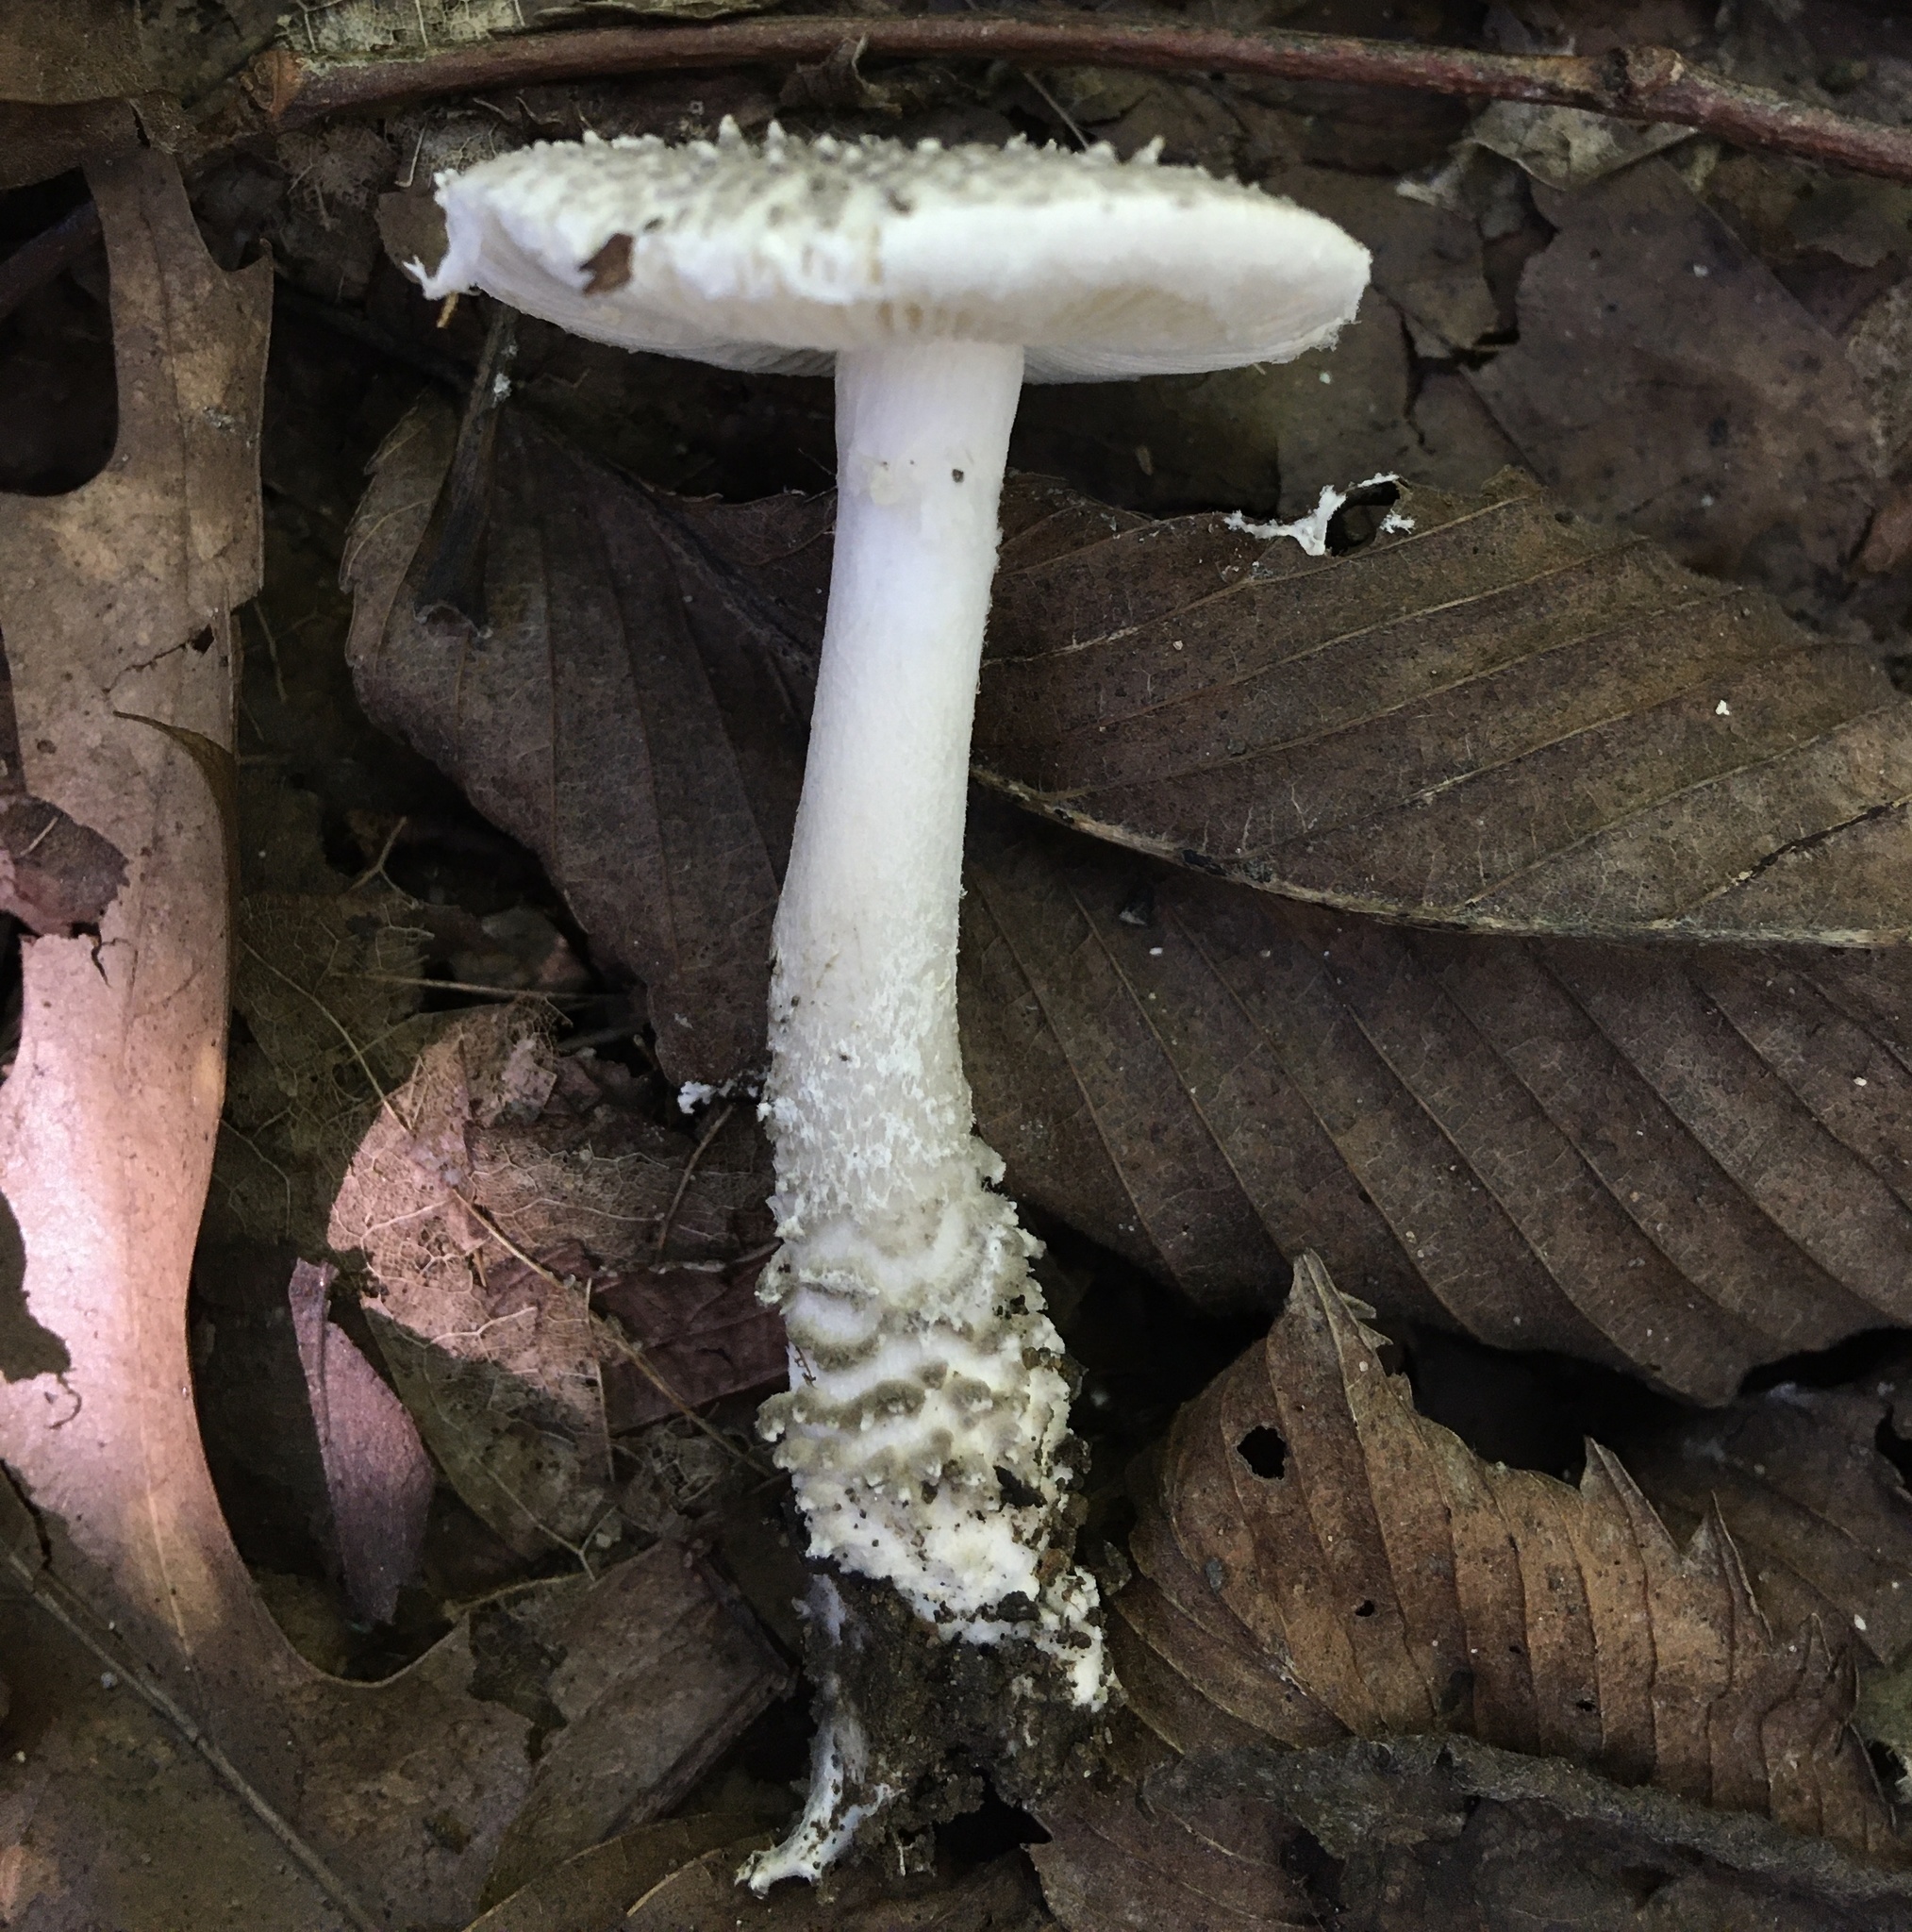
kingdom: Fungi
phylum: Basidiomycota
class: Agaricomycetes
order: Agaricales
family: Amanitaceae
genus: Amanita
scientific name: Amanita onusta
